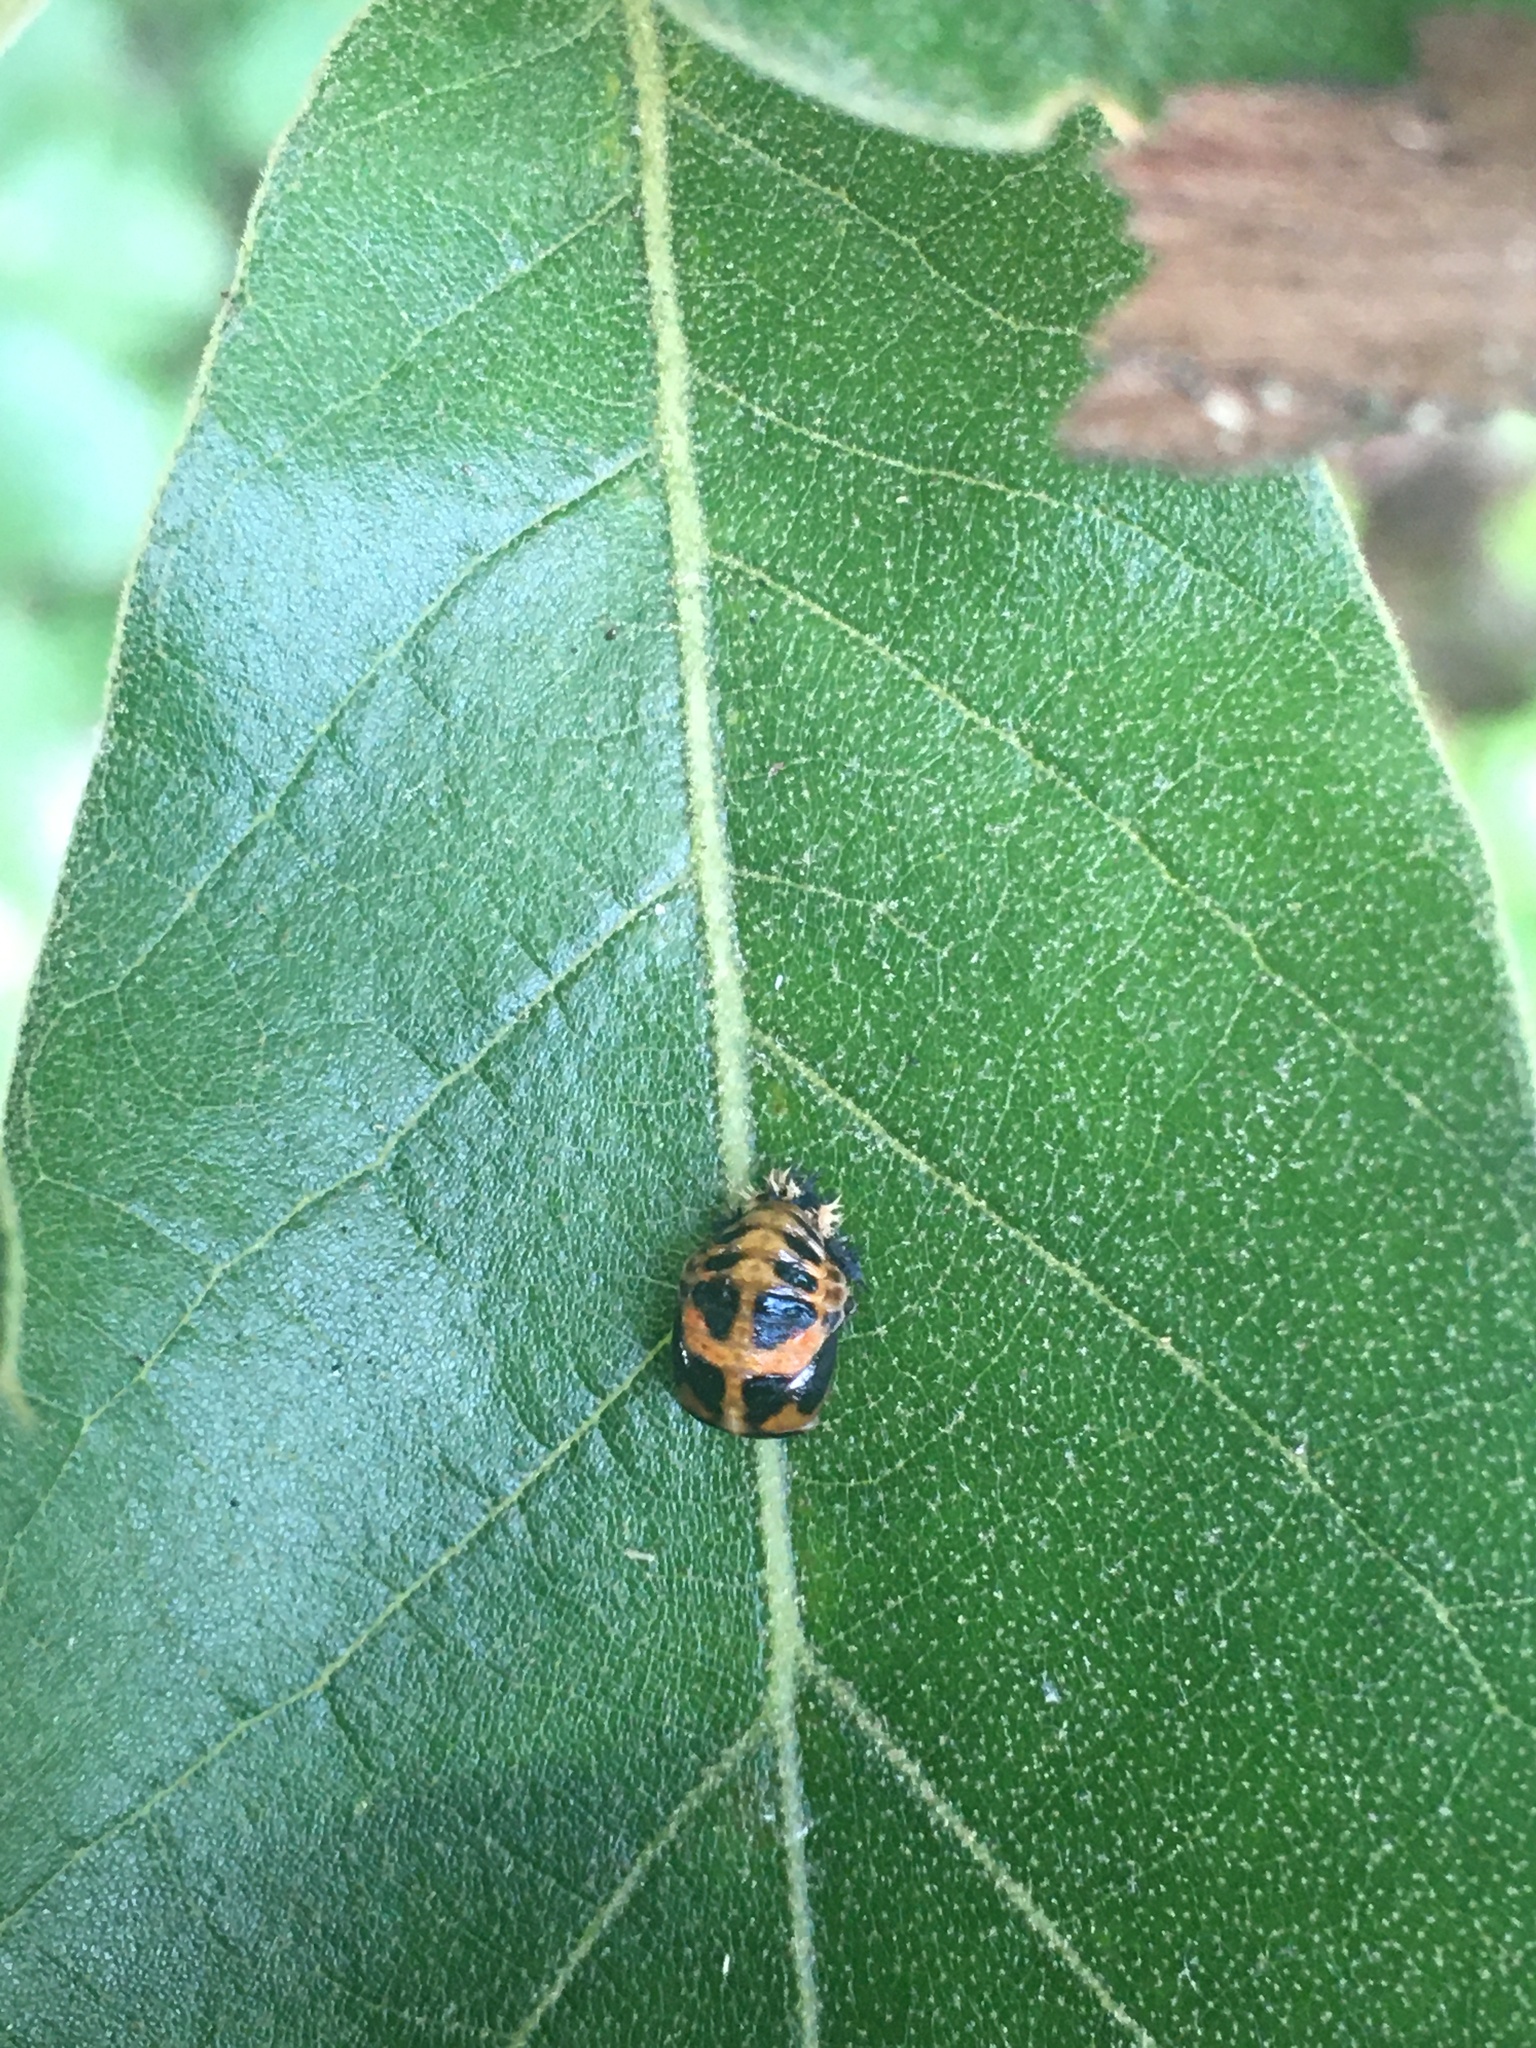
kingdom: Animalia
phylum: Arthropoda
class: Insecta
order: Coleoptera
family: Coccinellidae
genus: Harmonia
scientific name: Harmonia axyridis
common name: Harlequin ladybird
